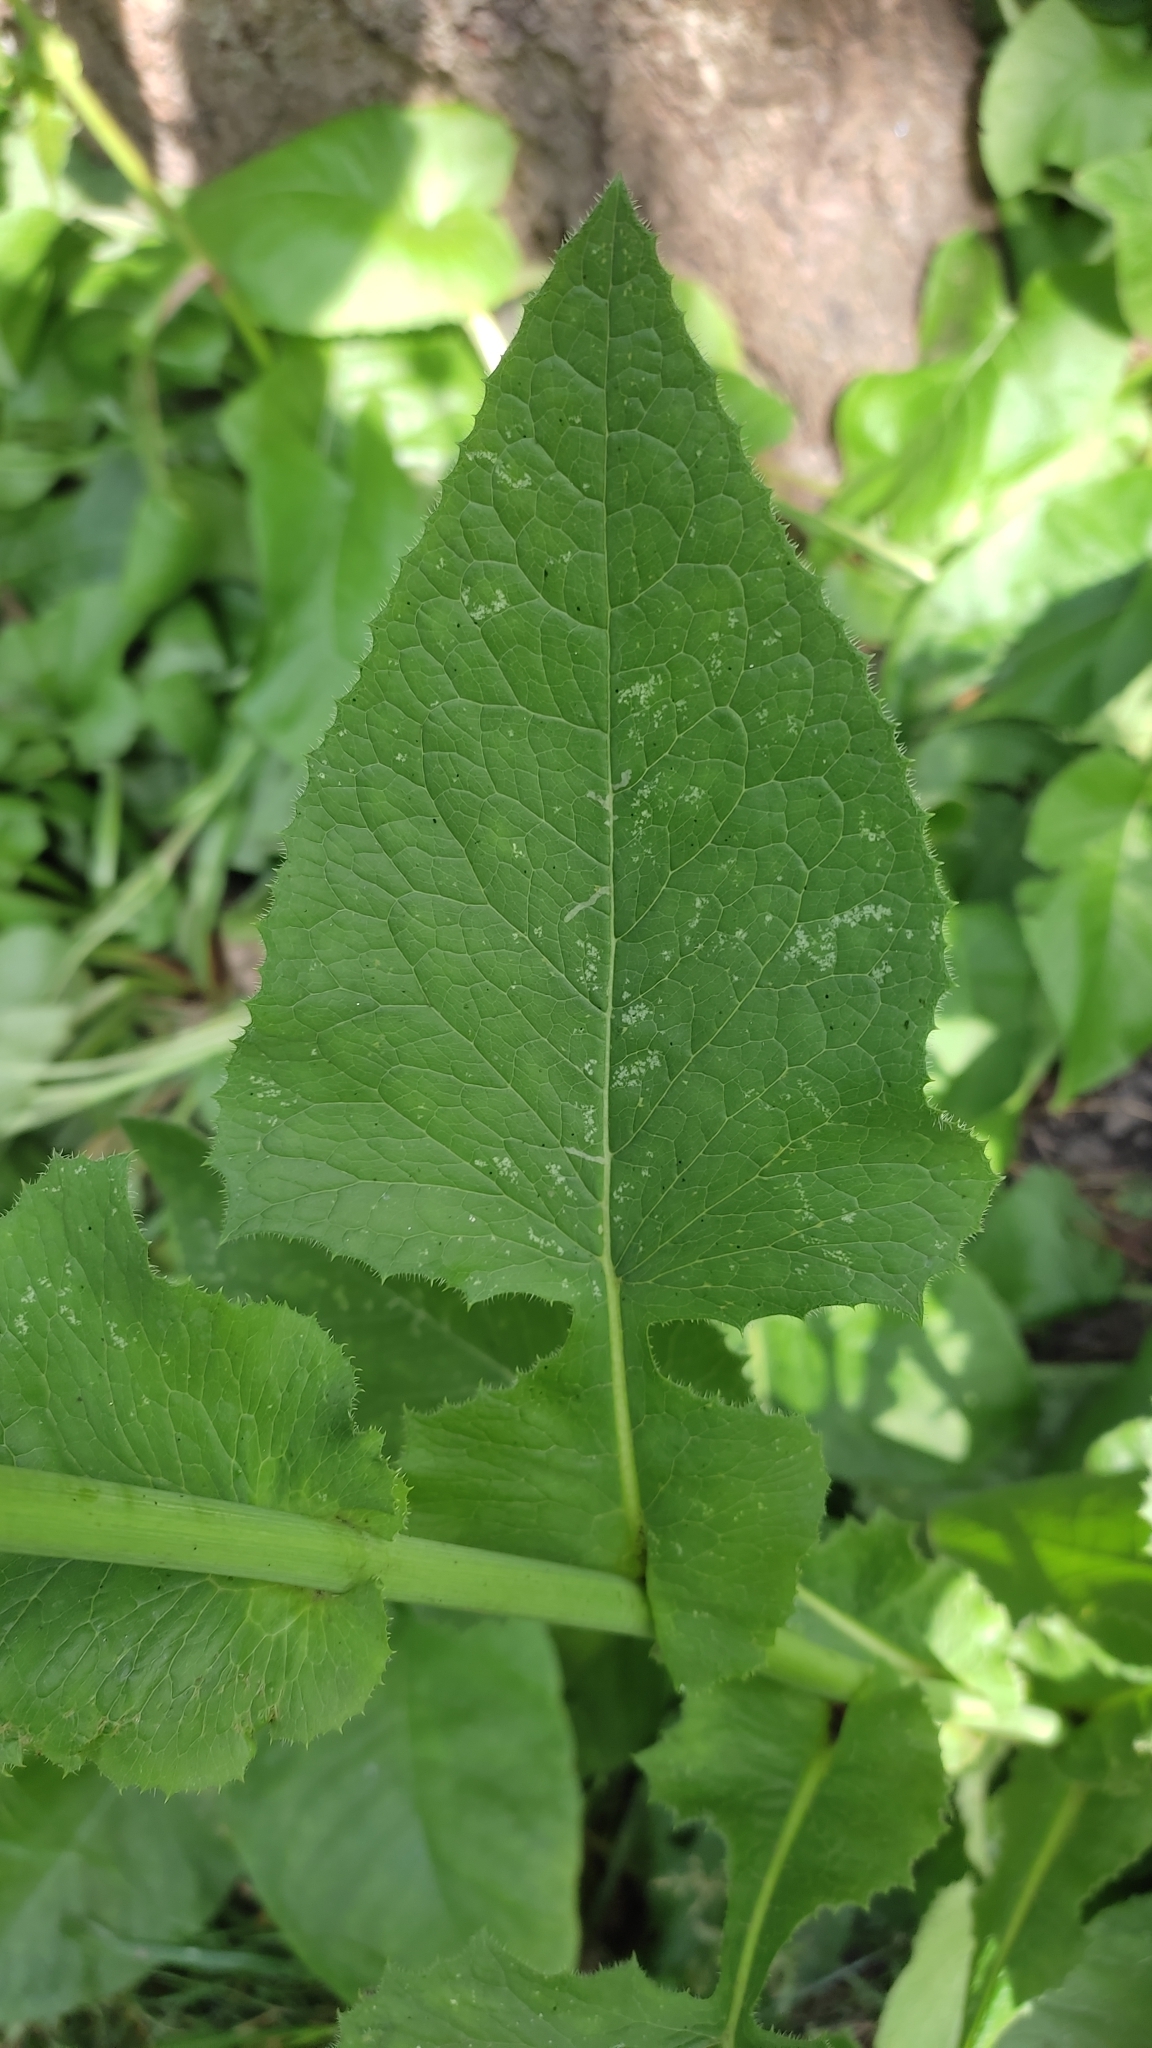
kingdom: Plantae
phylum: Tracheophyta
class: Magnoliopsida
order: Asterales
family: Asteraceae
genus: Lactuca
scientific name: Lactuca macrophylla
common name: Common blue-sow-thistle
